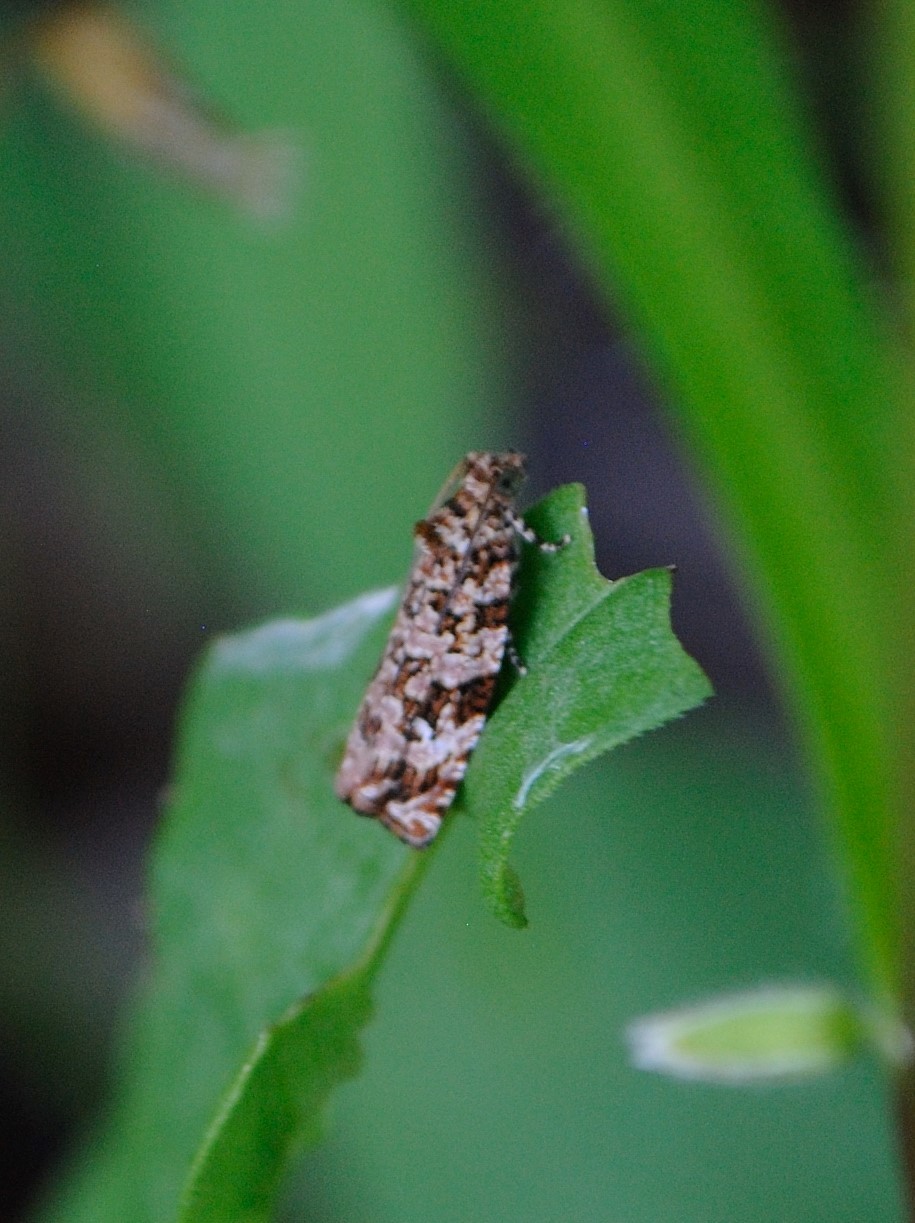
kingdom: Animalia
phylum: Arthropoda
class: Insecta
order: Lepidoptera
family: Tortricidae
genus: Phaecasiophora
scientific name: Phaecasiophora niveiguttana
